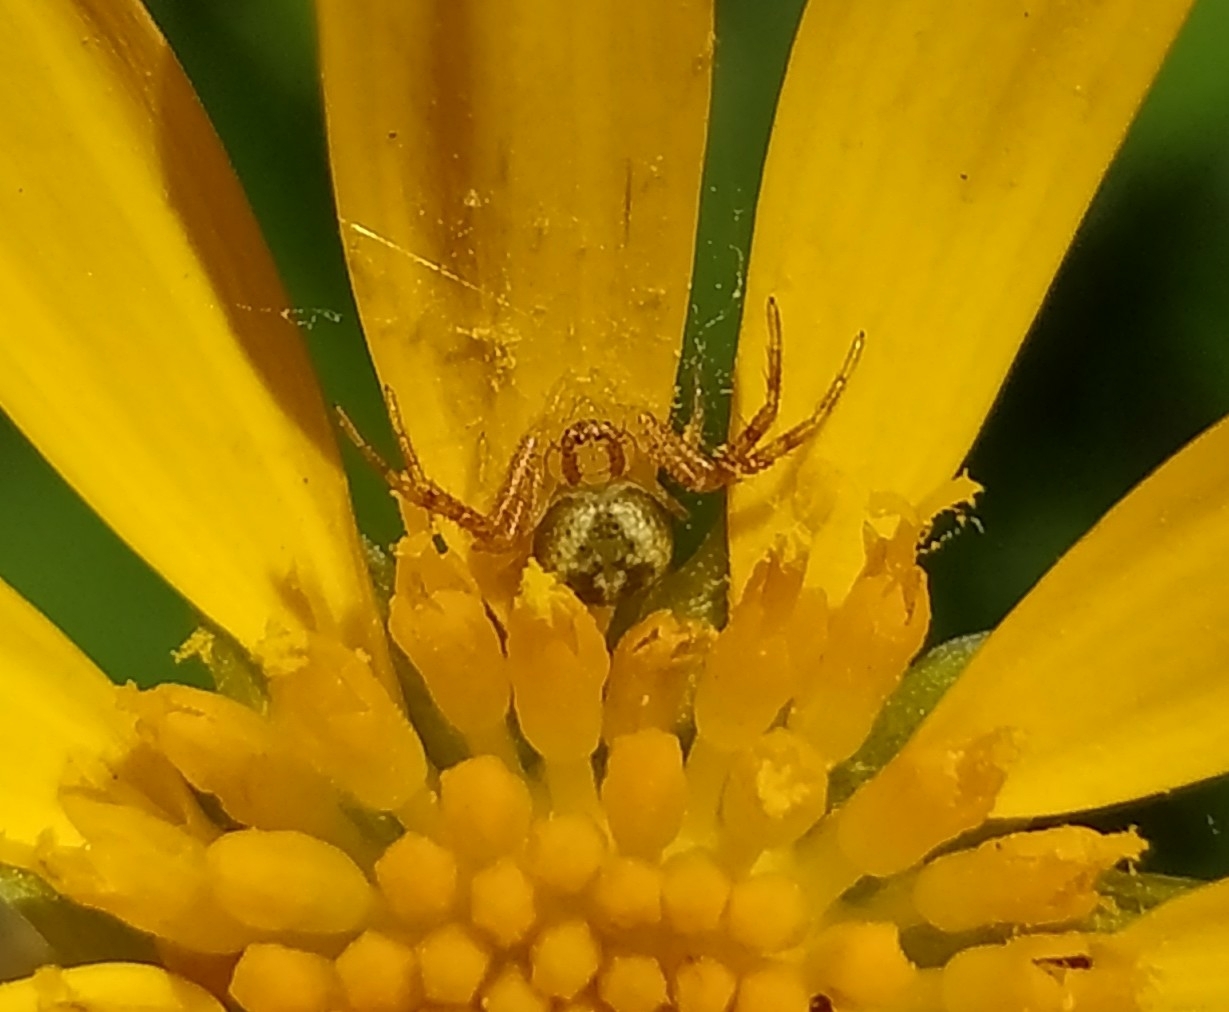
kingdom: Animalia
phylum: Arthropoda
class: Arachnida
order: Araneae
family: Thomisidae
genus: Misumenops
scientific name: Misumenops
